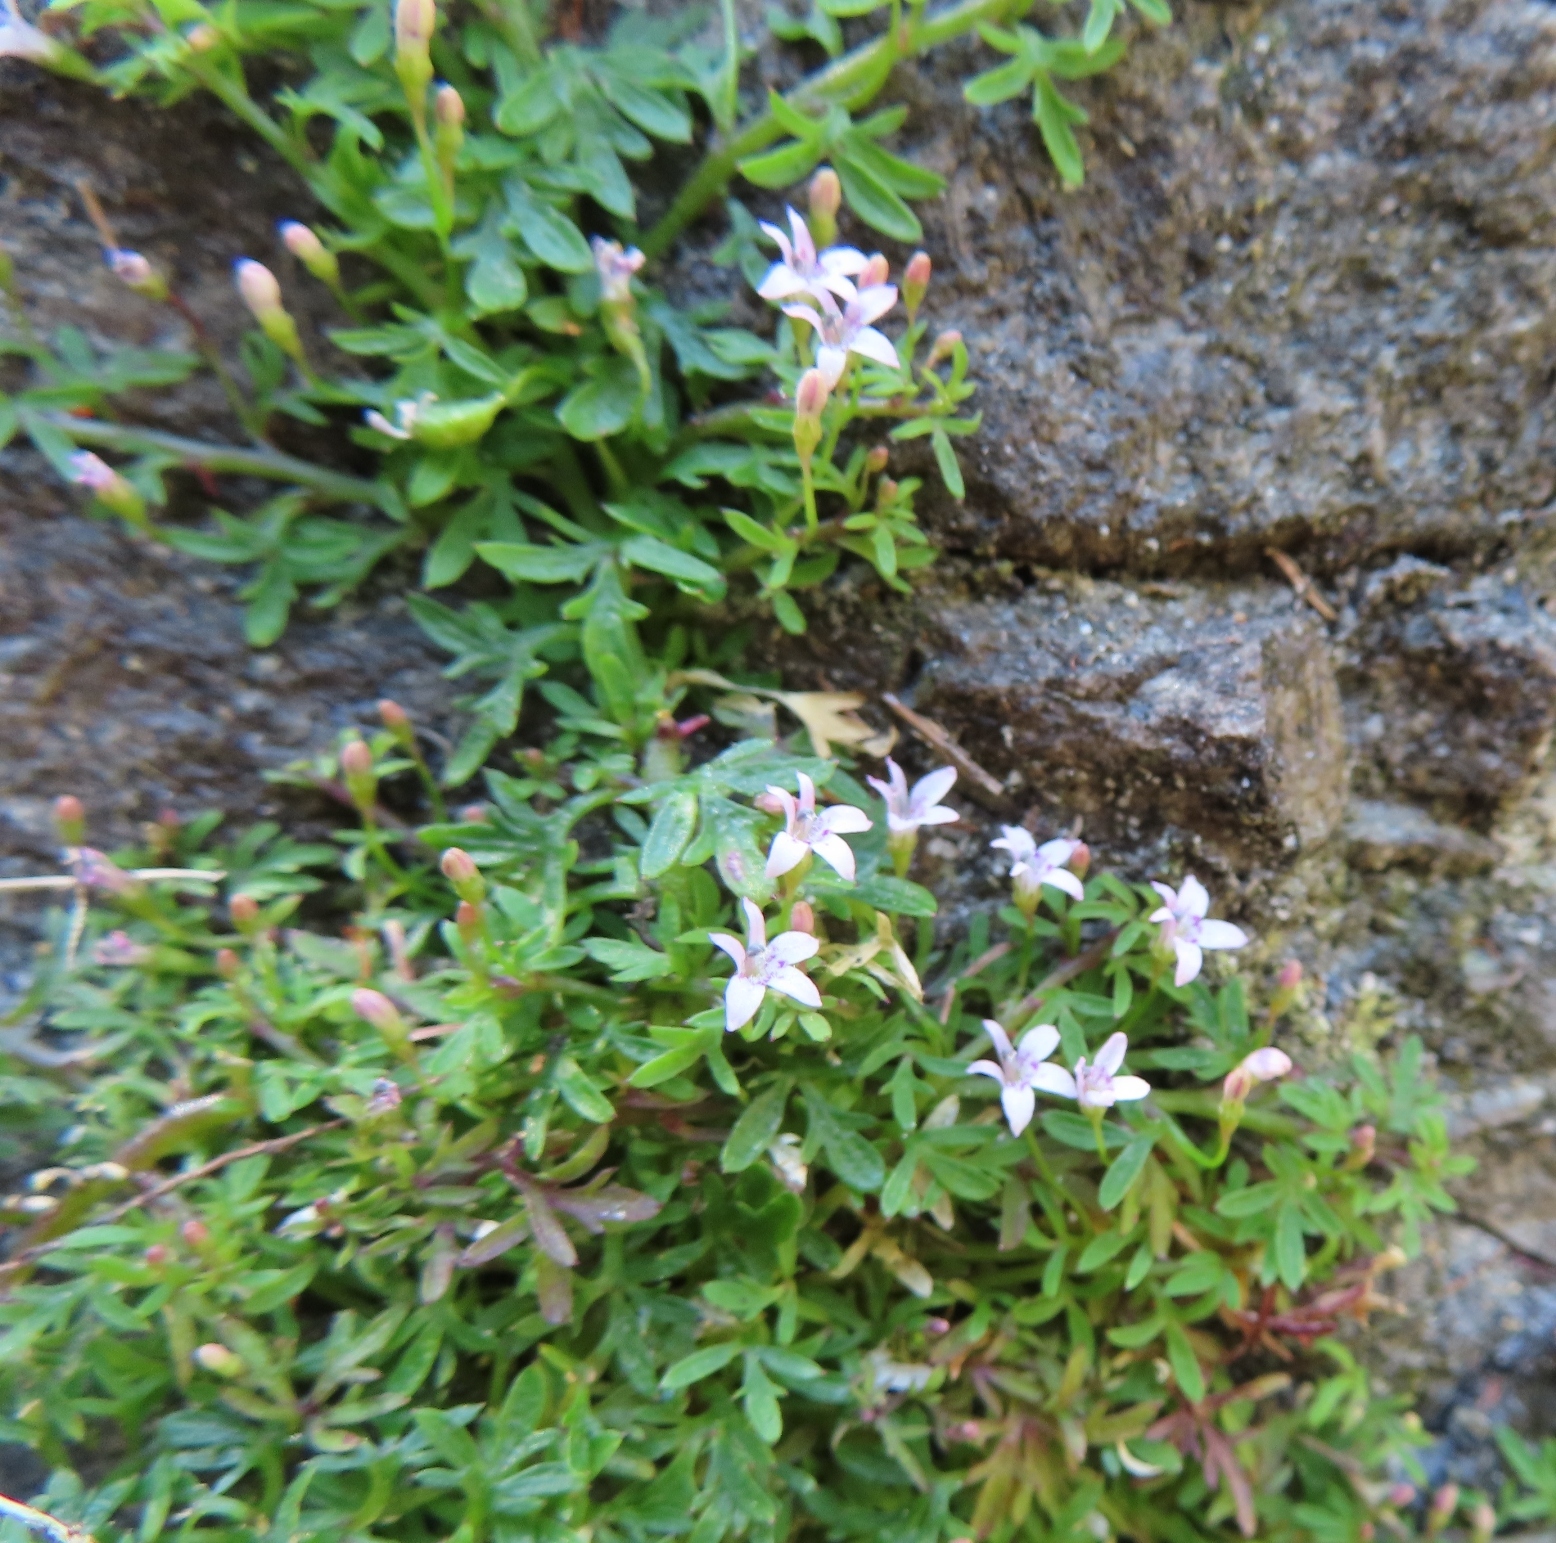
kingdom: Plantae
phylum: Tracheophyta
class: Magnoliopsida
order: Asterales
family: Campanulaceae
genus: Lobelia
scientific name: Lobelia muscoides
